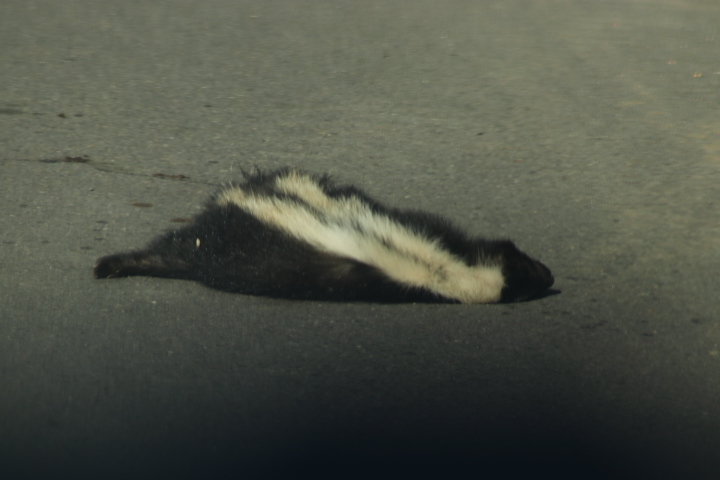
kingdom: Animalia
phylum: Chordata
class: Mammalia
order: Carnivora
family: Mephitidae
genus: Mephitis
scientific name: Mephitis mephitis
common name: Striped skunk
